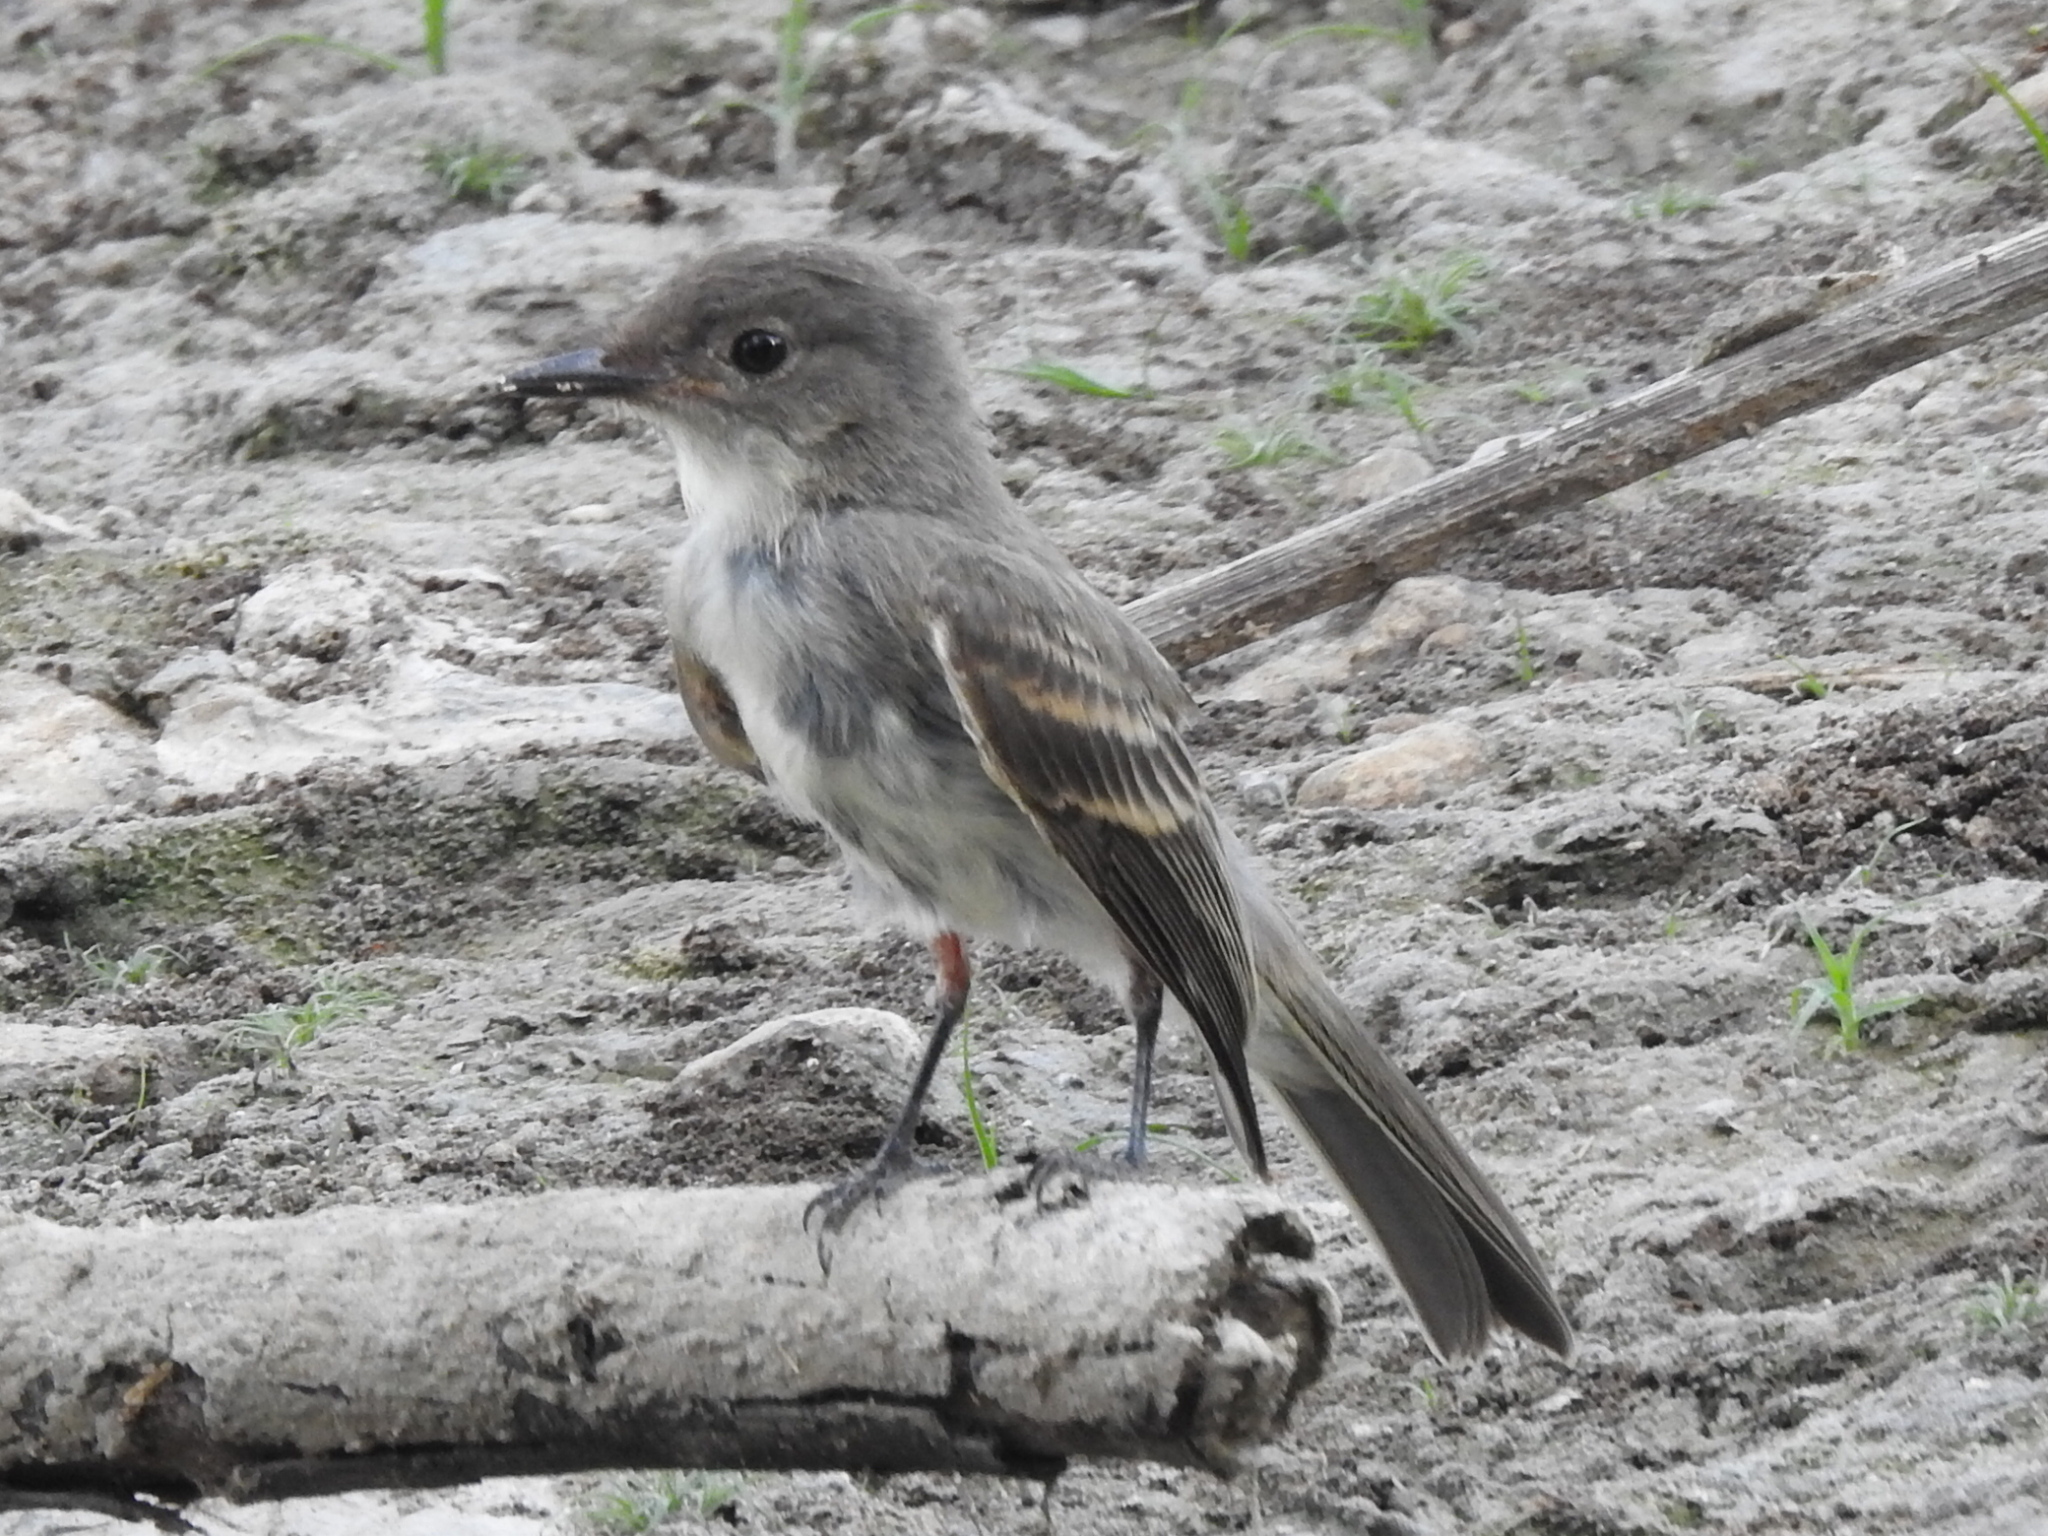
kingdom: Animalia
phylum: Chordata
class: Aves
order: Passeriformes
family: Tyrannidae
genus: Sayornis
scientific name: Sayornis phoebe
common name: Eastern phoebe
